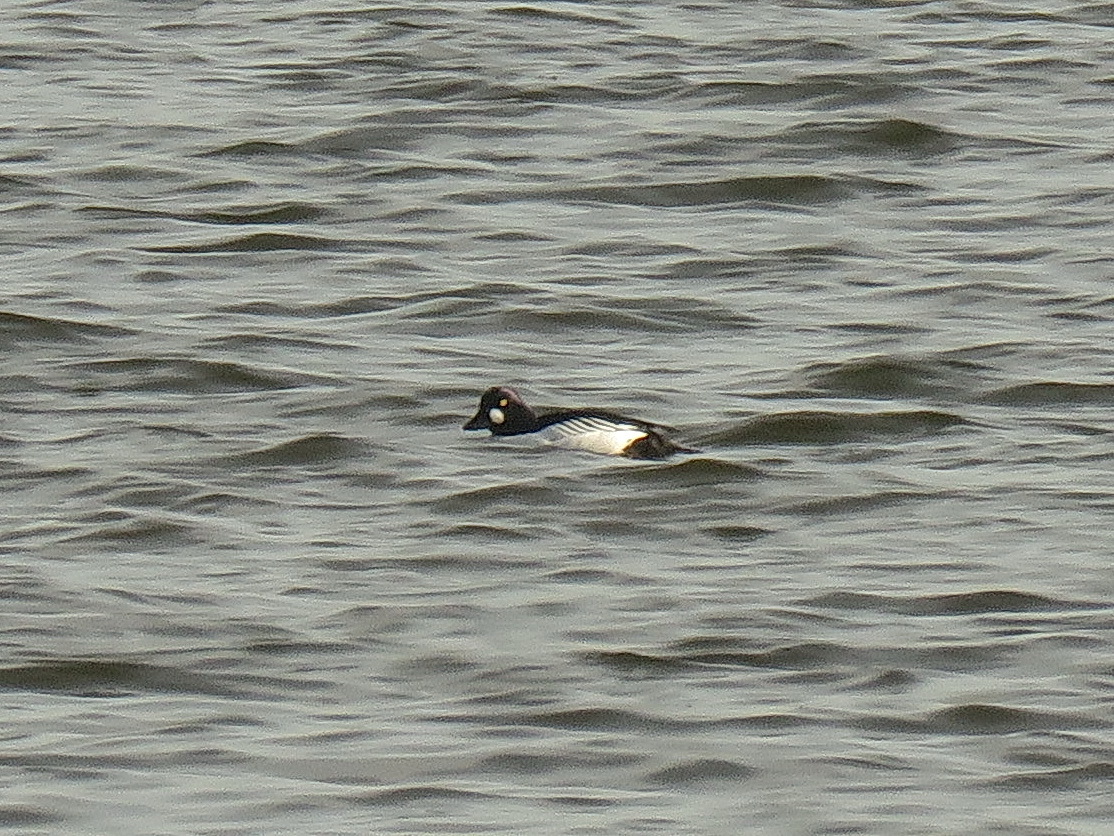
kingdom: Animalia
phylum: Chordata
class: Aves
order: Anseriformes
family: Anatidae
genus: Bucephala
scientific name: Bucephala clangula
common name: Common goldeneye
